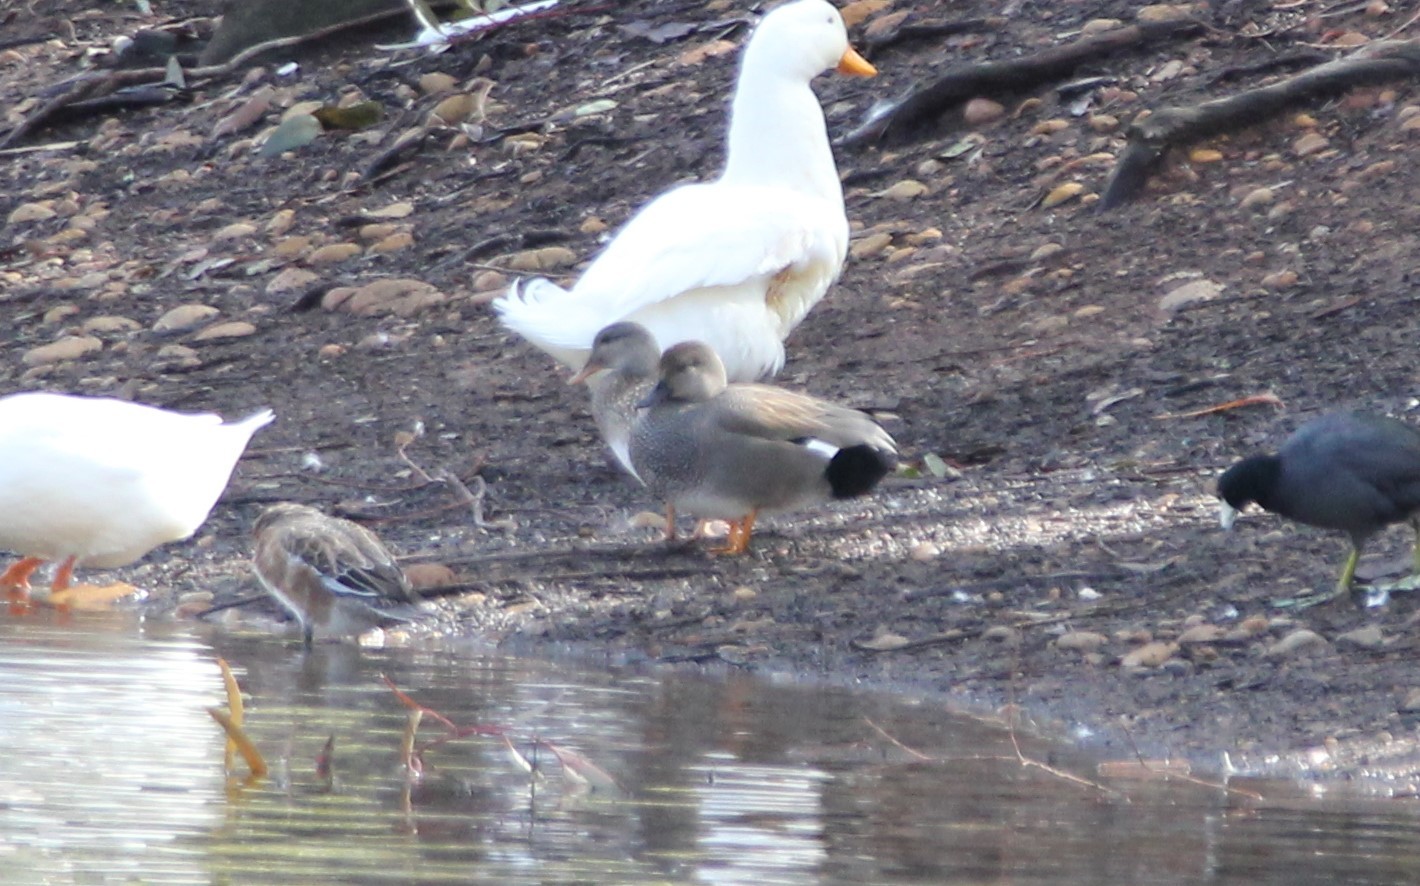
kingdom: Animalia
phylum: Chordata
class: Aves
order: Anseriformes
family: Anatidae
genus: Mareca
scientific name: Mareca strepera
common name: Gadwall
